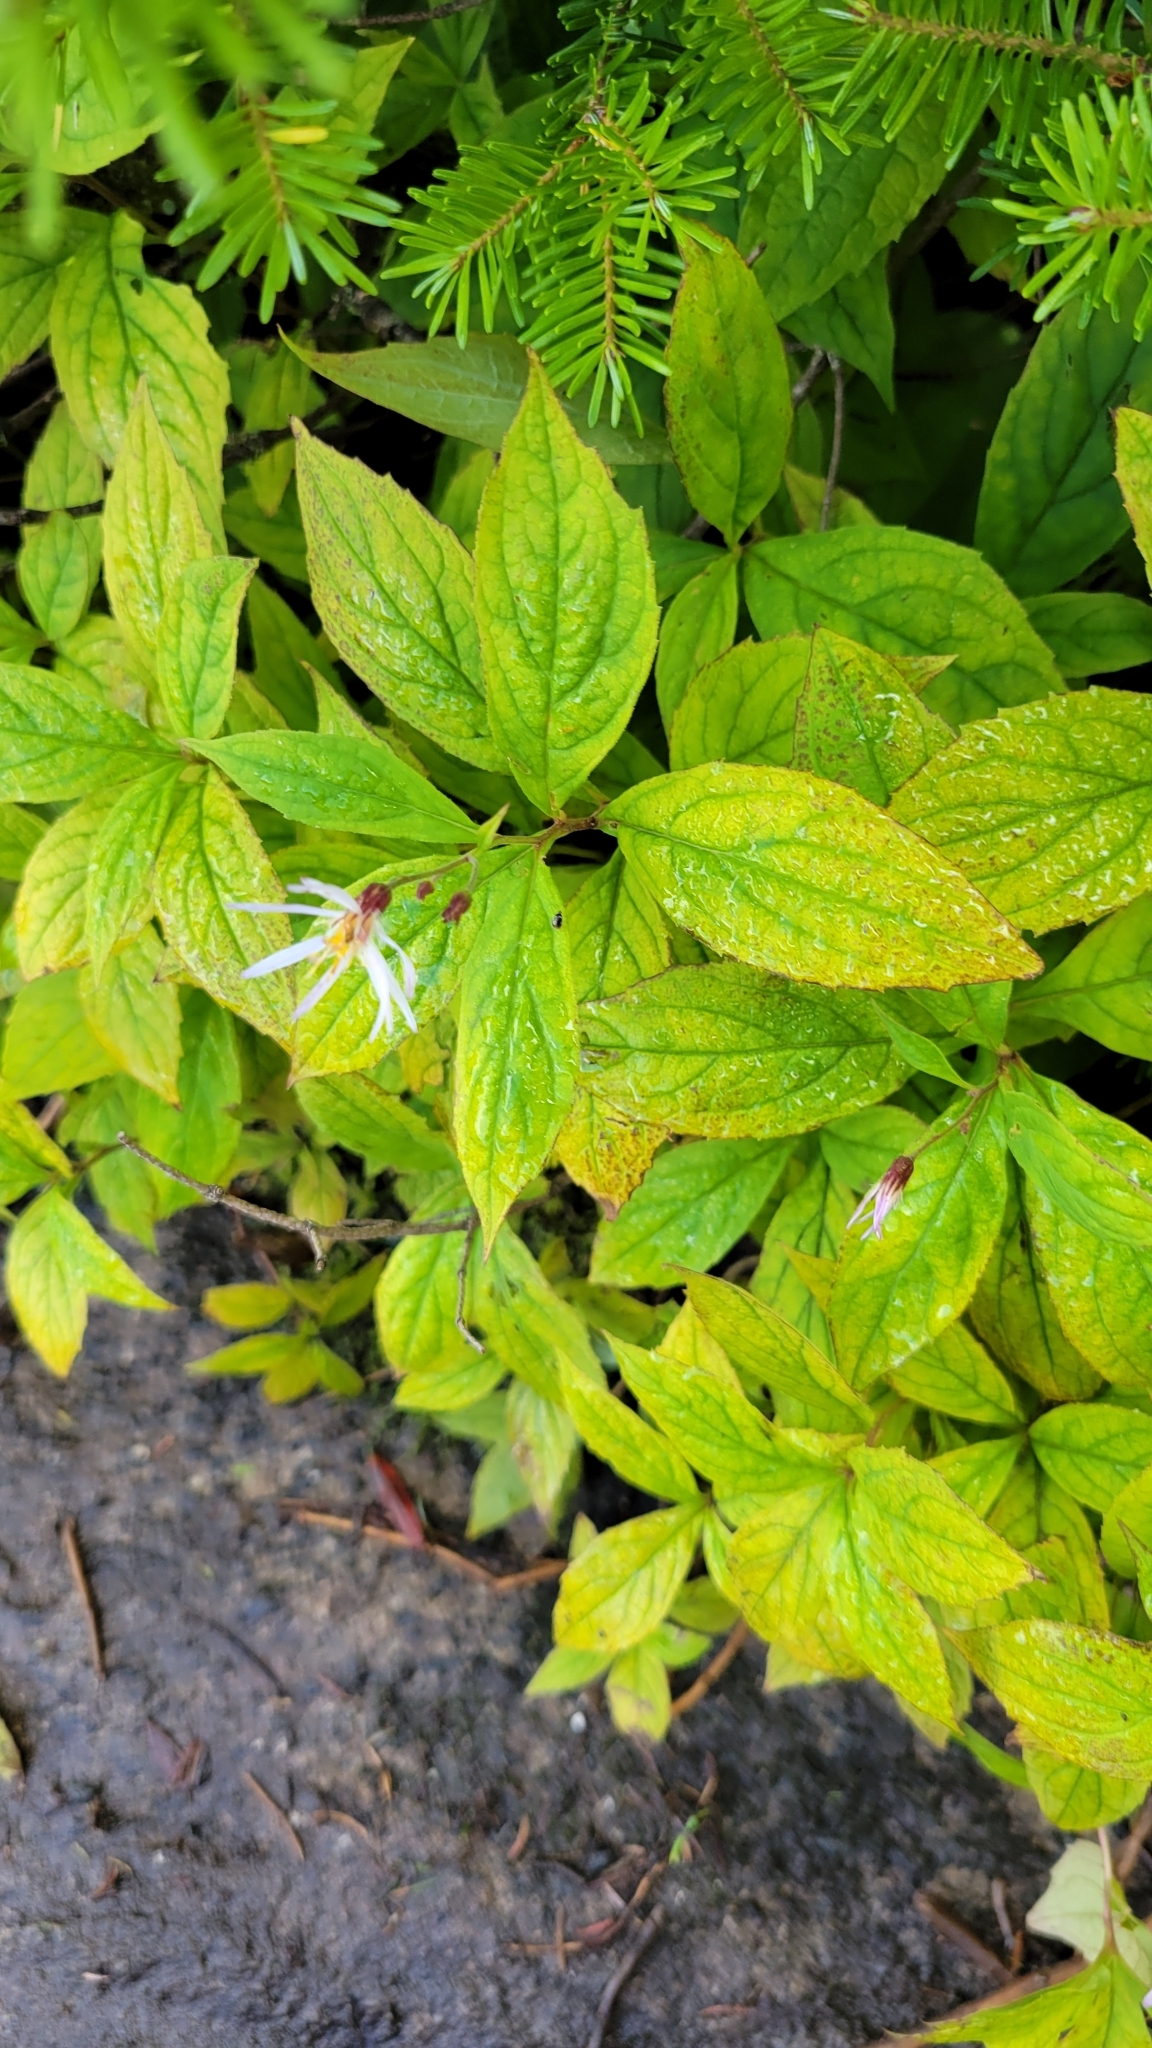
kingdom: Plantae
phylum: Tracheophyta
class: Magnoliopsida
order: Asterales
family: Asteraceae
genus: Oclemena
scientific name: Oclemena acuminata
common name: Mountain aster
